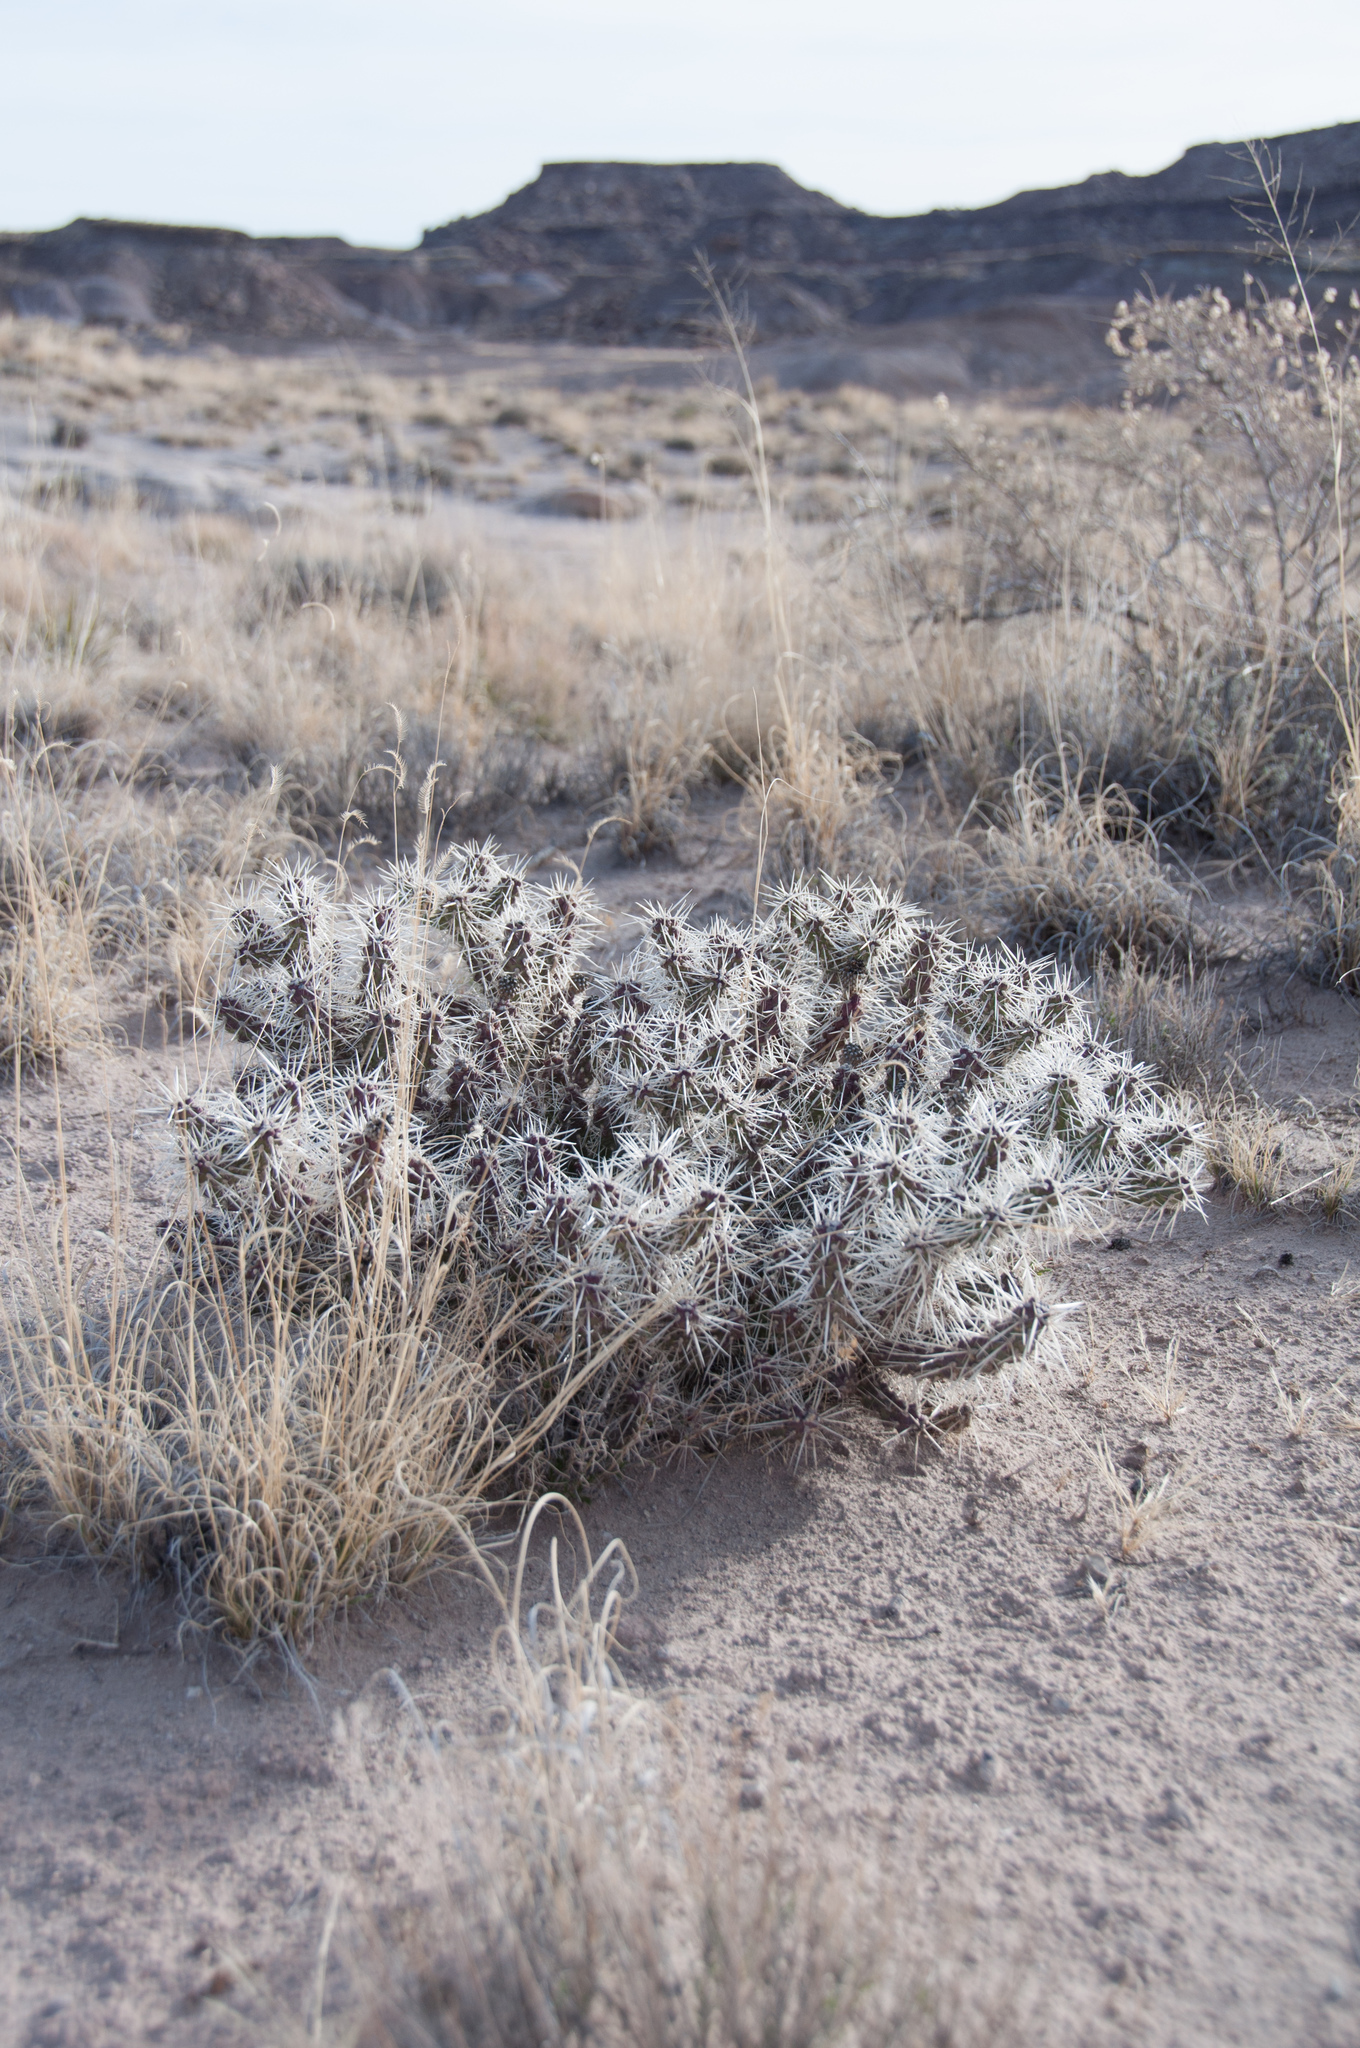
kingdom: Plantae
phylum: Tracheophyta
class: Magnoliopsida
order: Caryophyllales
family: Cactaceae
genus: Cylindropuntia
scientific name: Cylindropuntia whipplei
